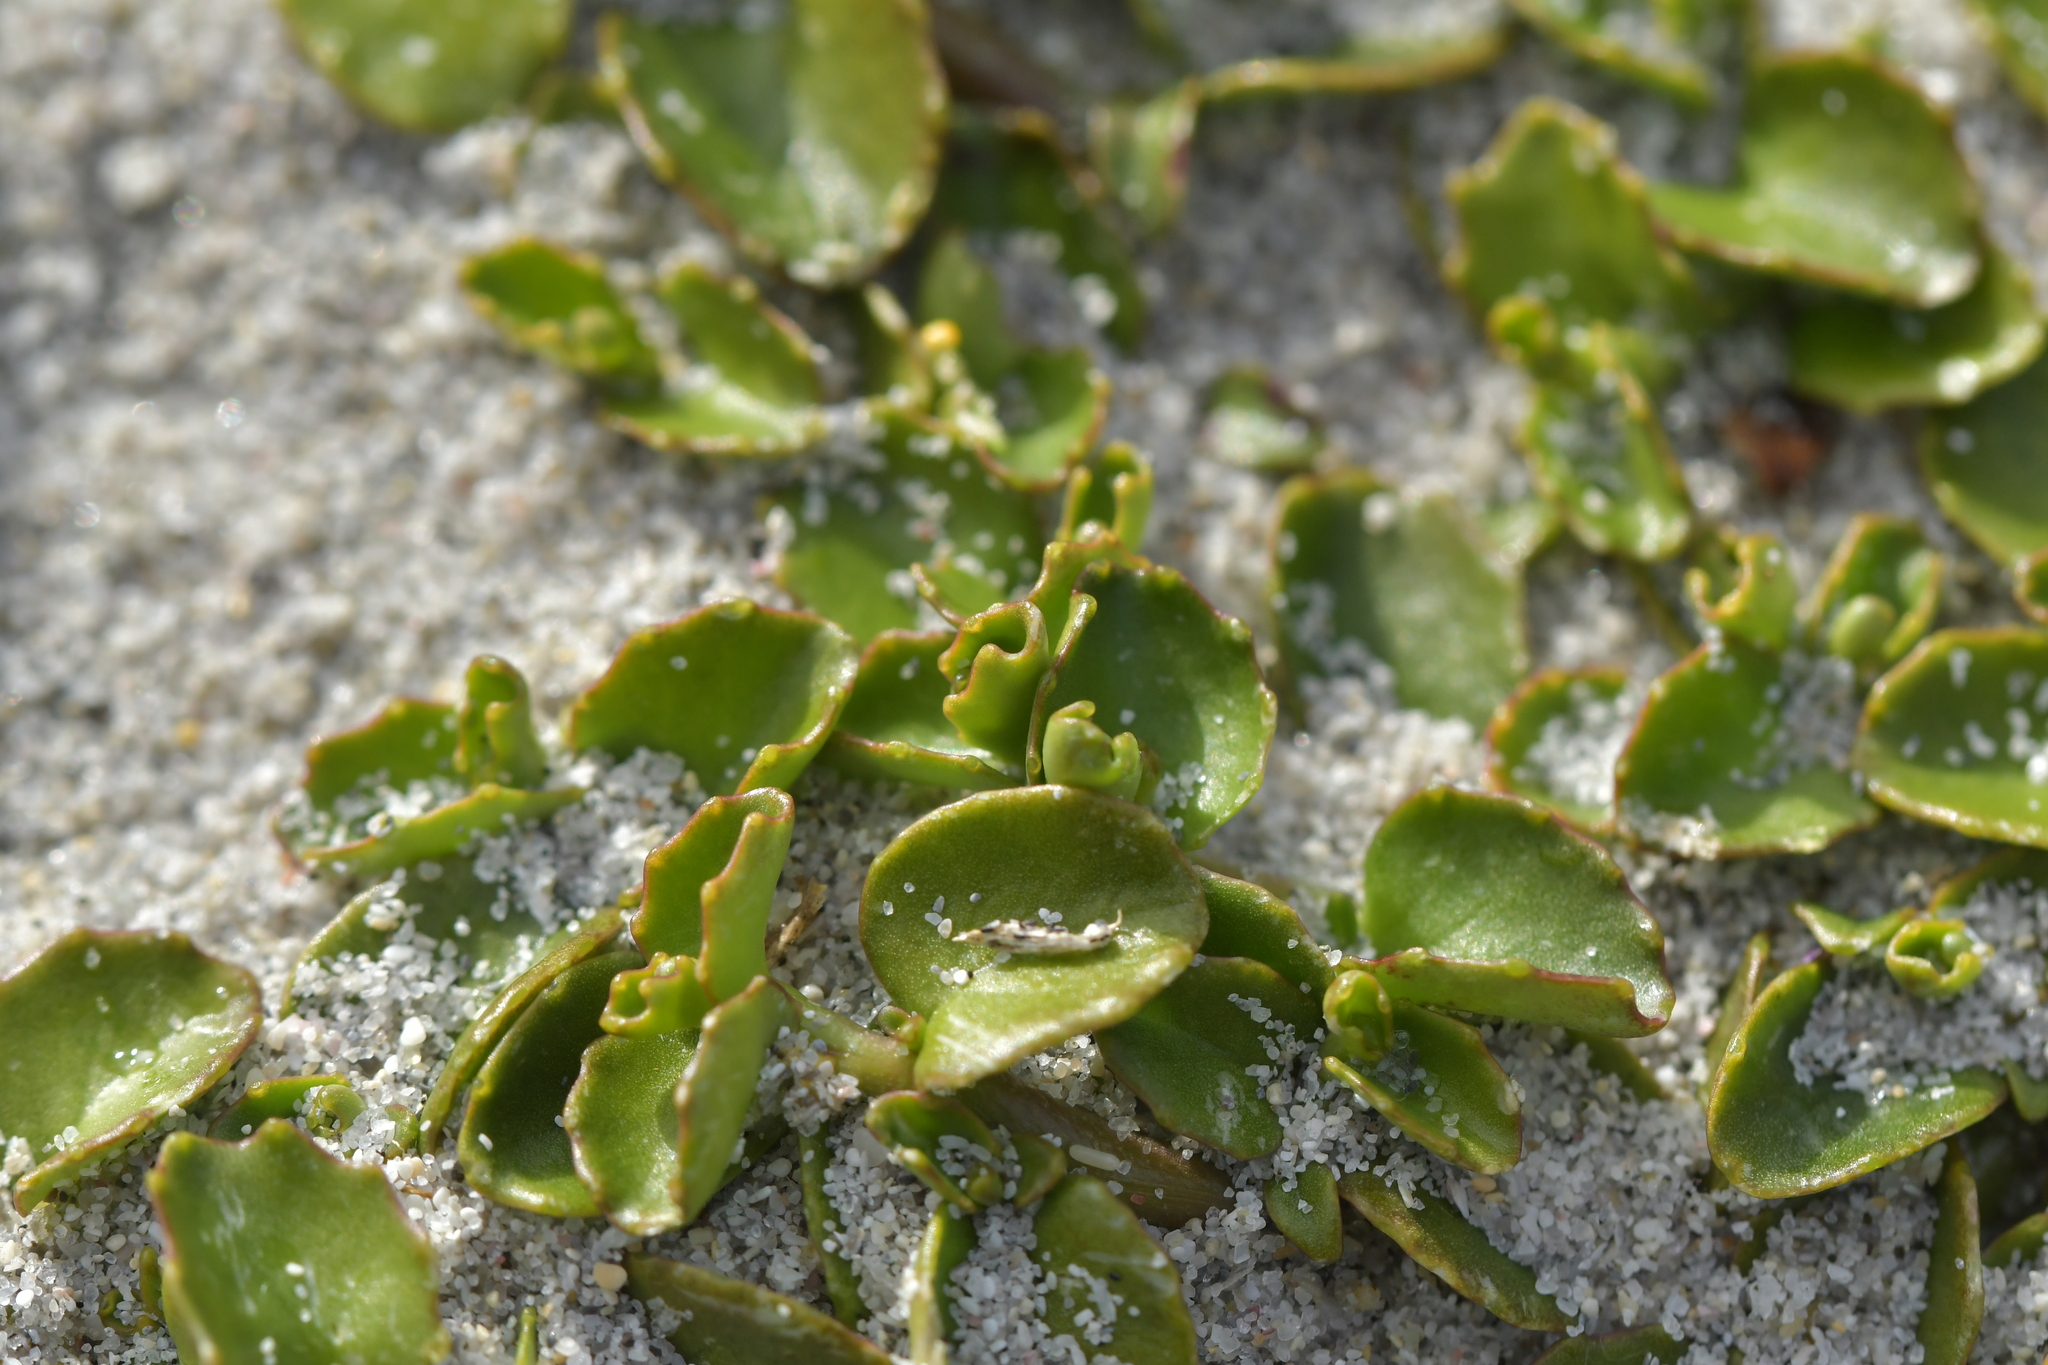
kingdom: Plantae
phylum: Tracheophyta
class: Magnoliopsida
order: Asterales
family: Campanulaceae
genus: Lobelia
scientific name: Lobelia arenaria
